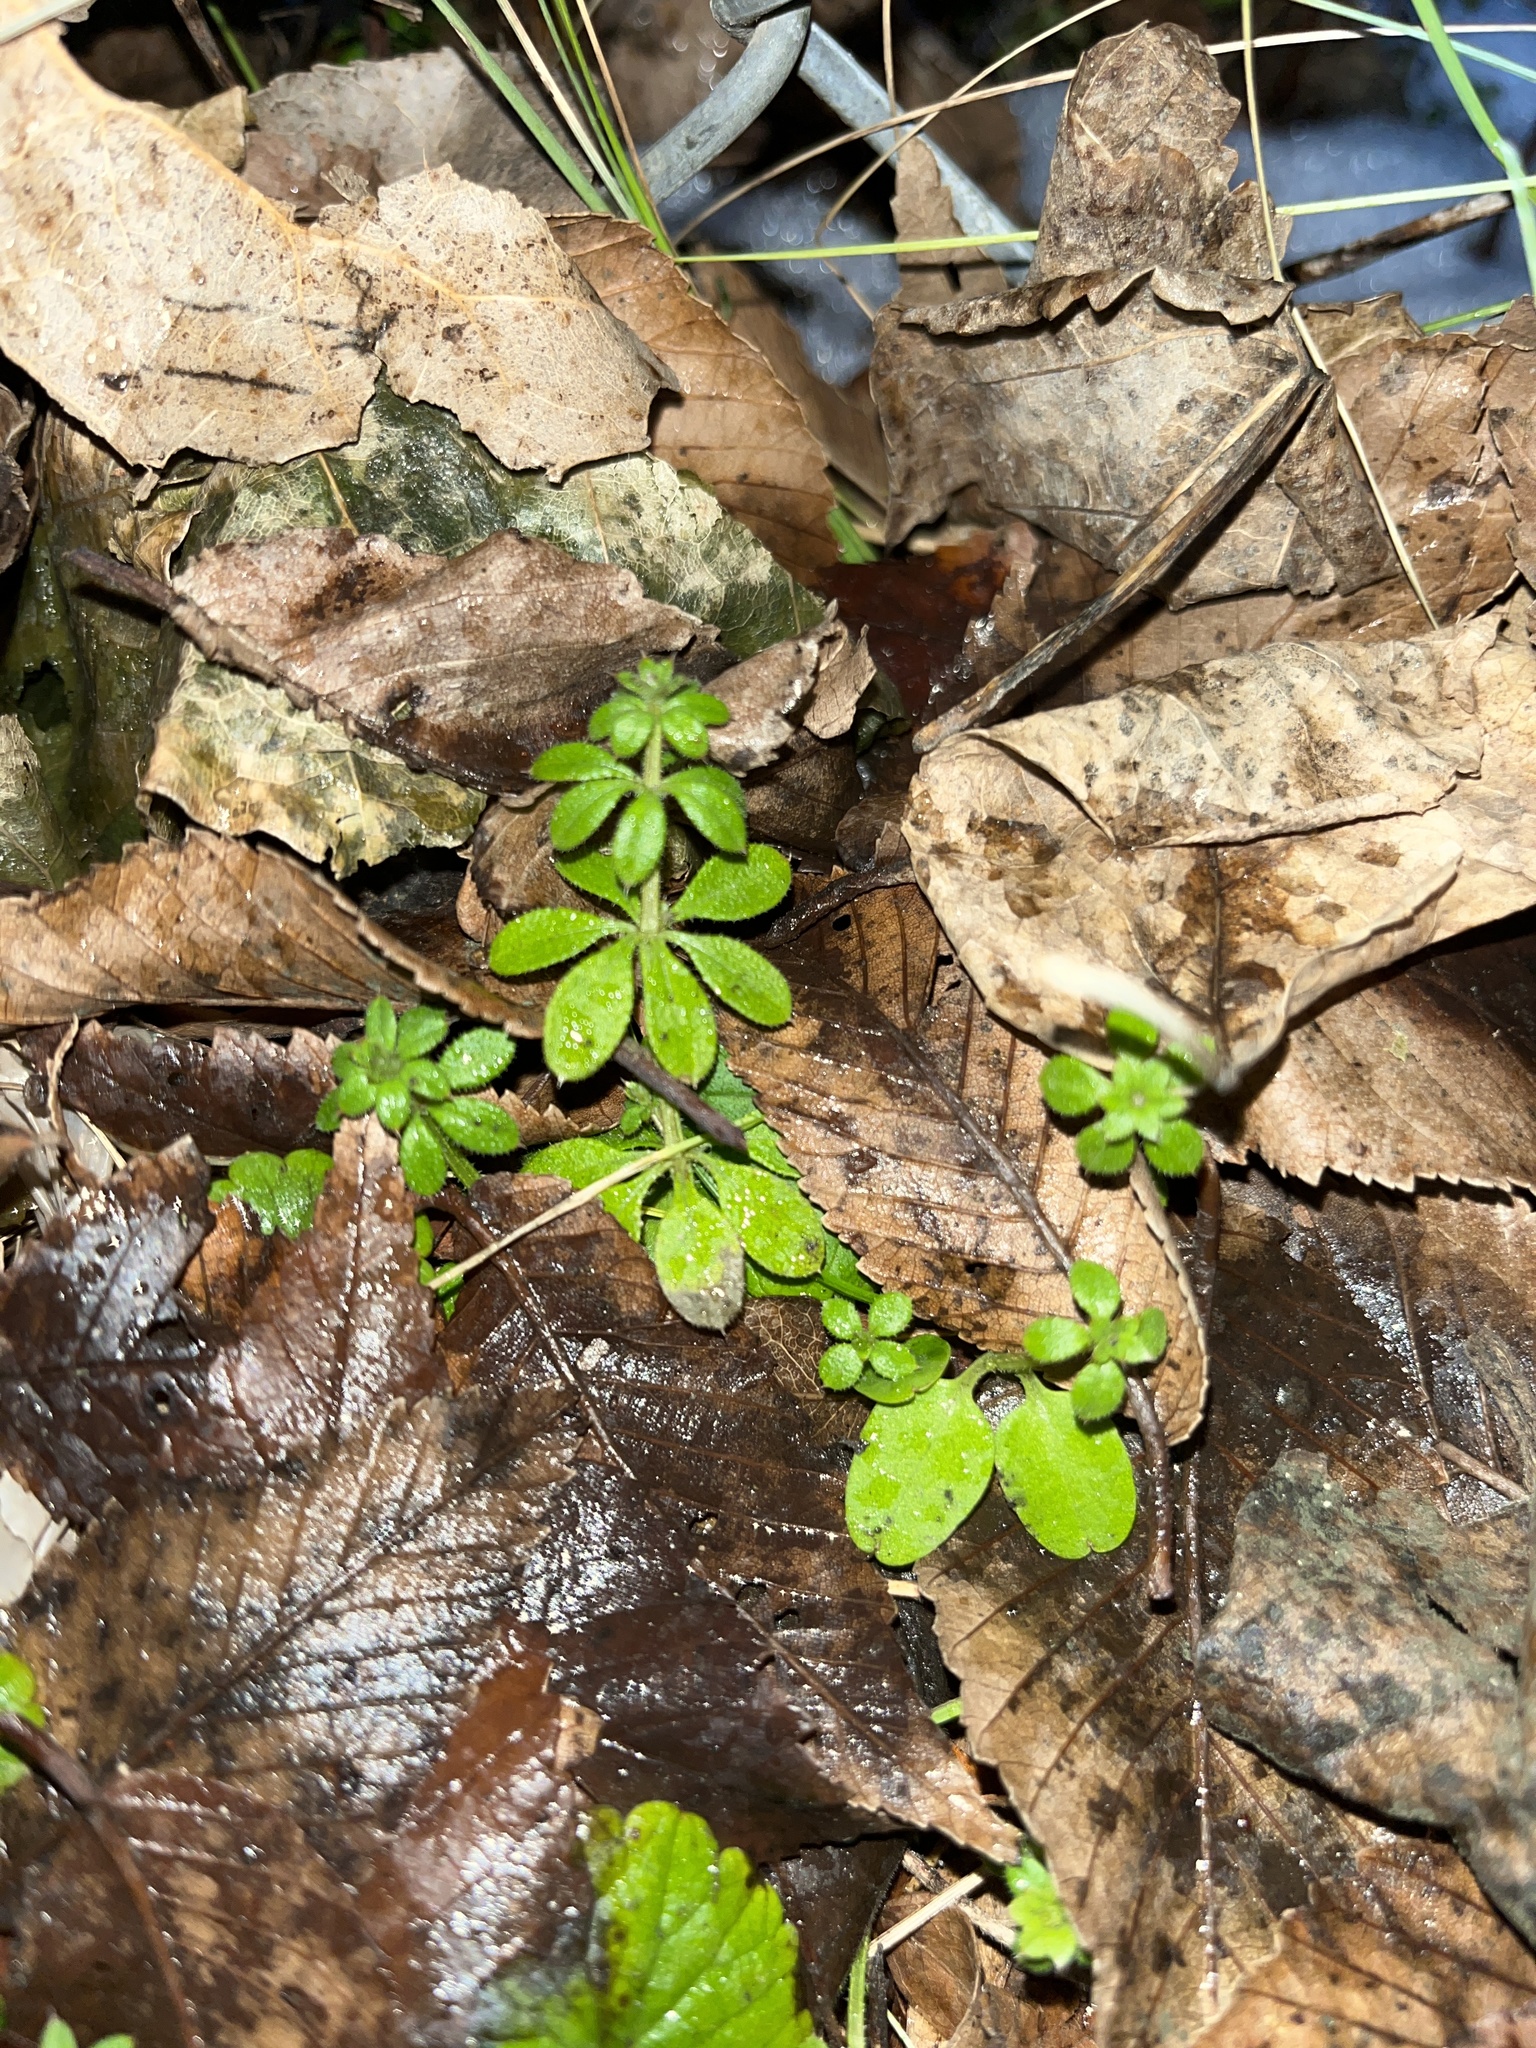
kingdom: Plantae
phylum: Tracheophyta
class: Magnoliopsida
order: Gentianales
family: Rubiaceae
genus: Galium
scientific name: Galium aparine
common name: Cleavers
